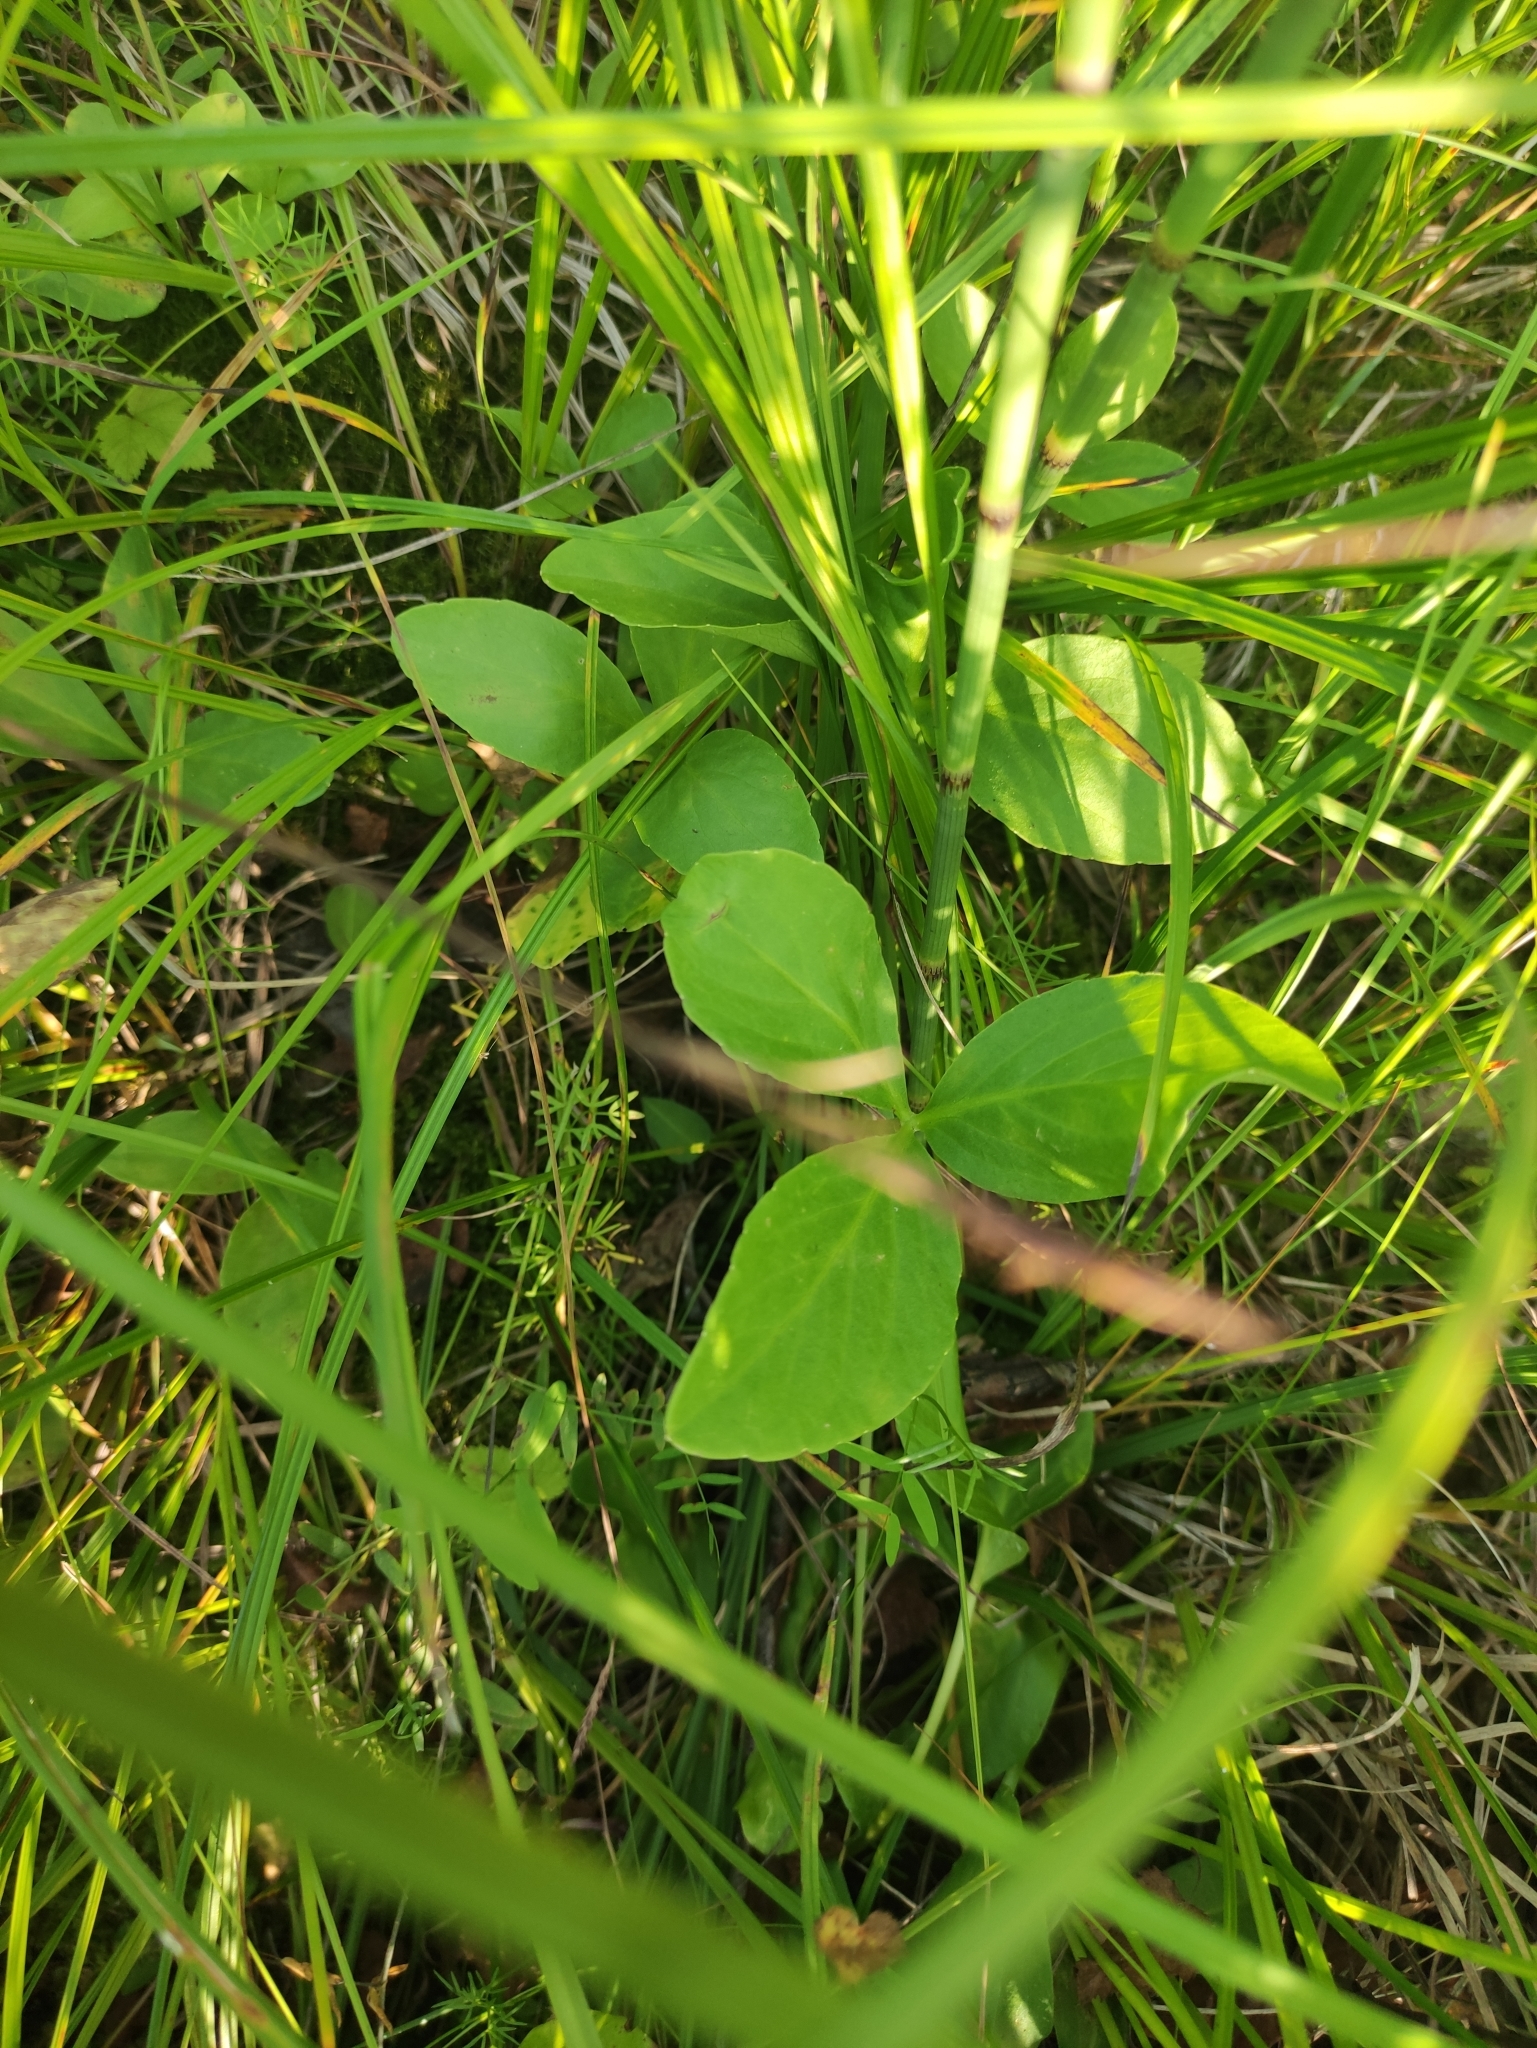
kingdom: Plantae
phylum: Tracheophyta
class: Magnoliopsida
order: Asterales
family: Menyanthaceae
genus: Menyanthes
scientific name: Menyanthes trifoliata
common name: Bogbean
